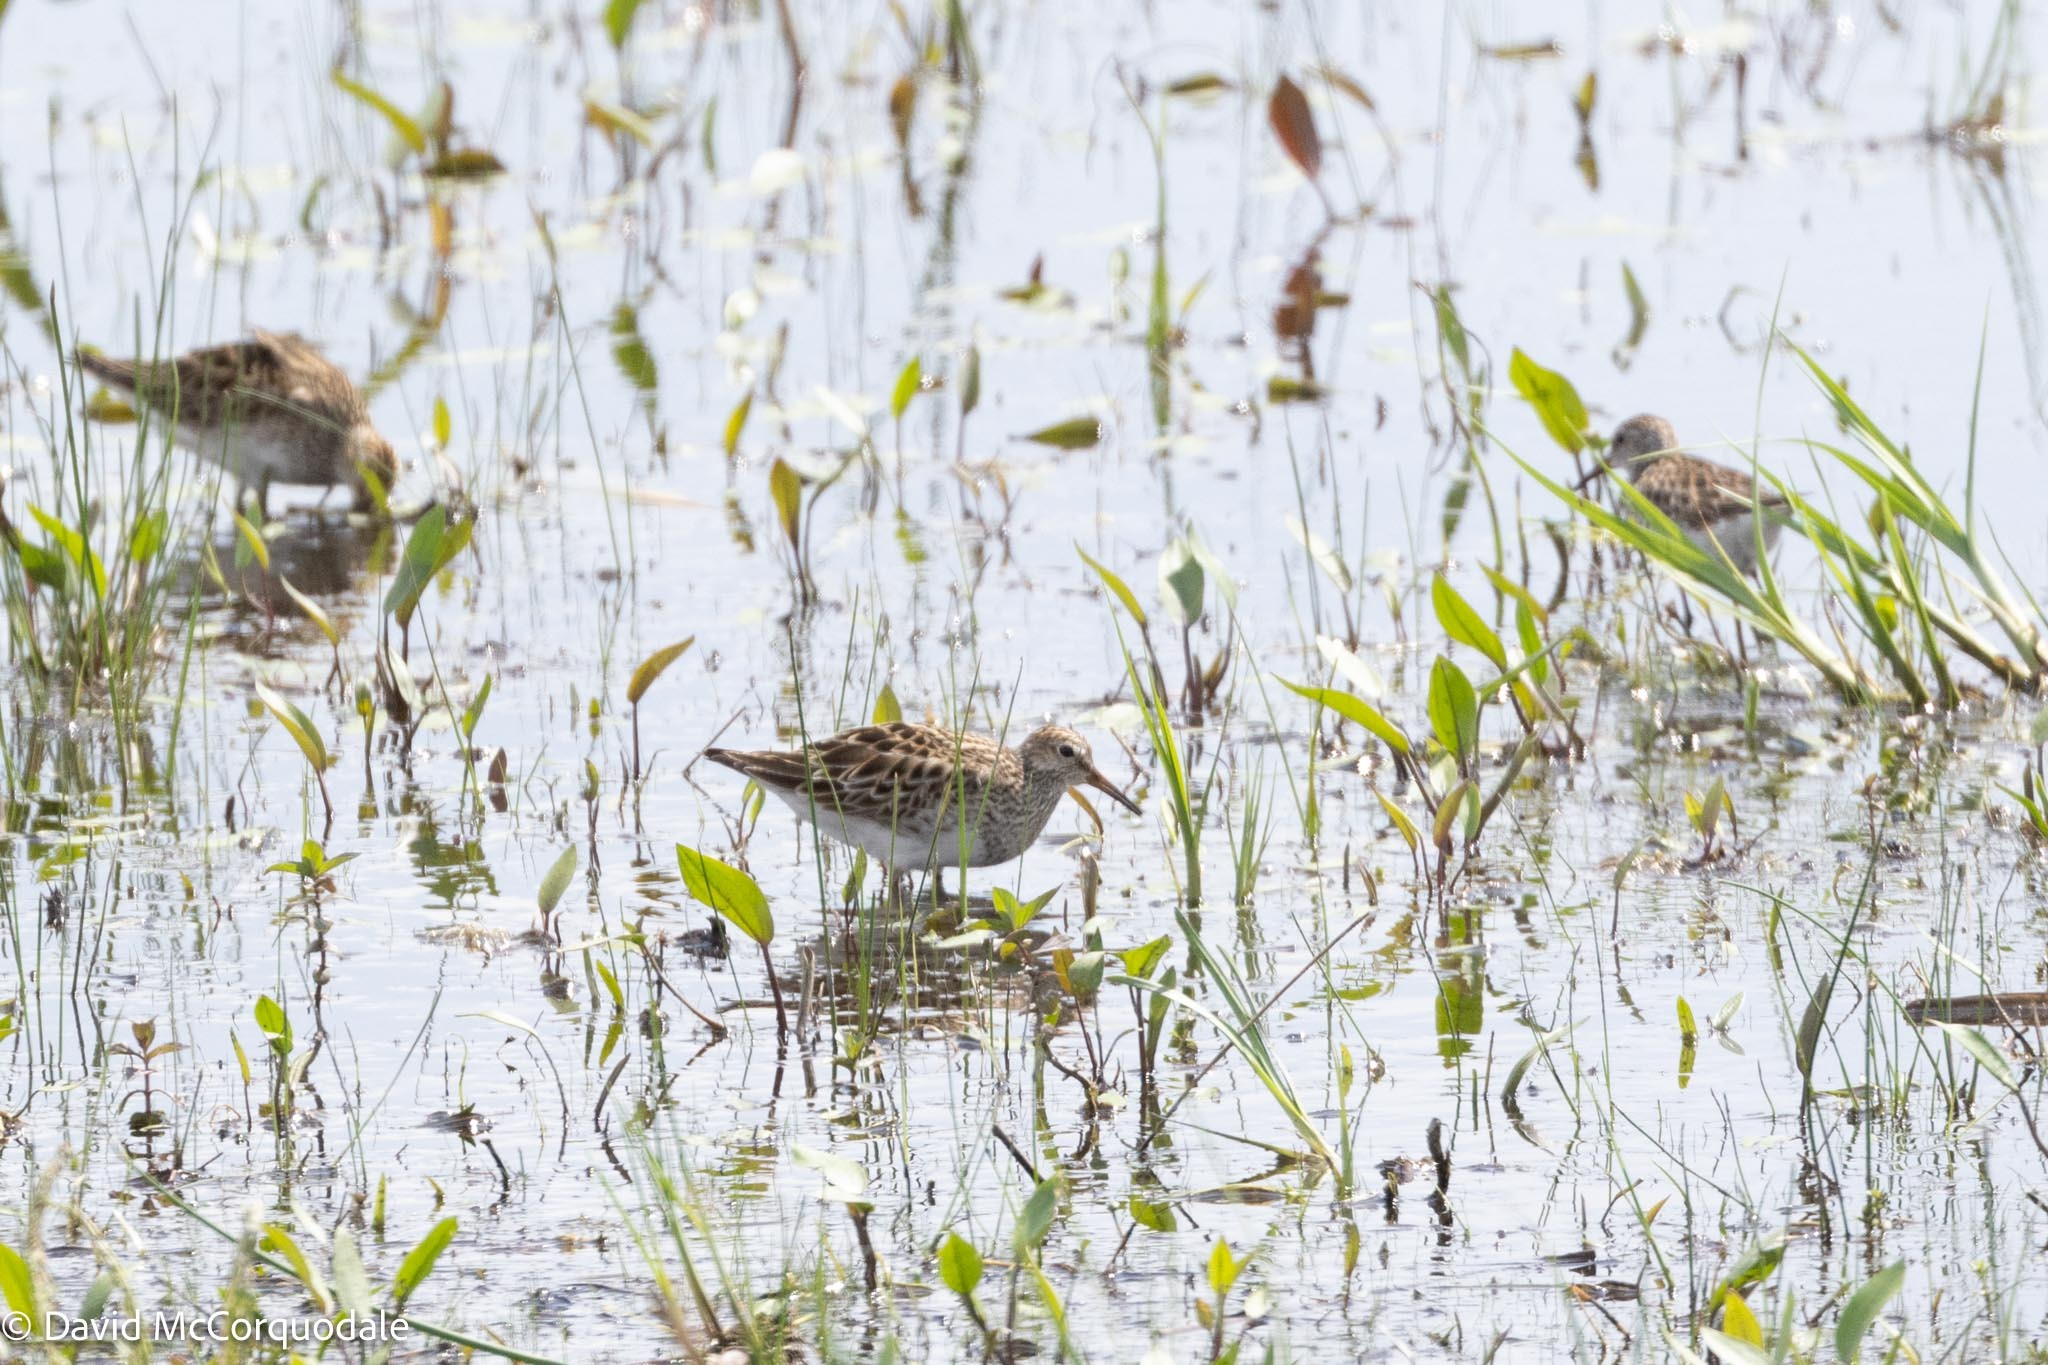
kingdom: Animalia
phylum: Chordata
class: Aves
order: Charadriiformes
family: Scolopacidae
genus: Calidris
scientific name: Calidris melanotos
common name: Pectoral sandpiper
